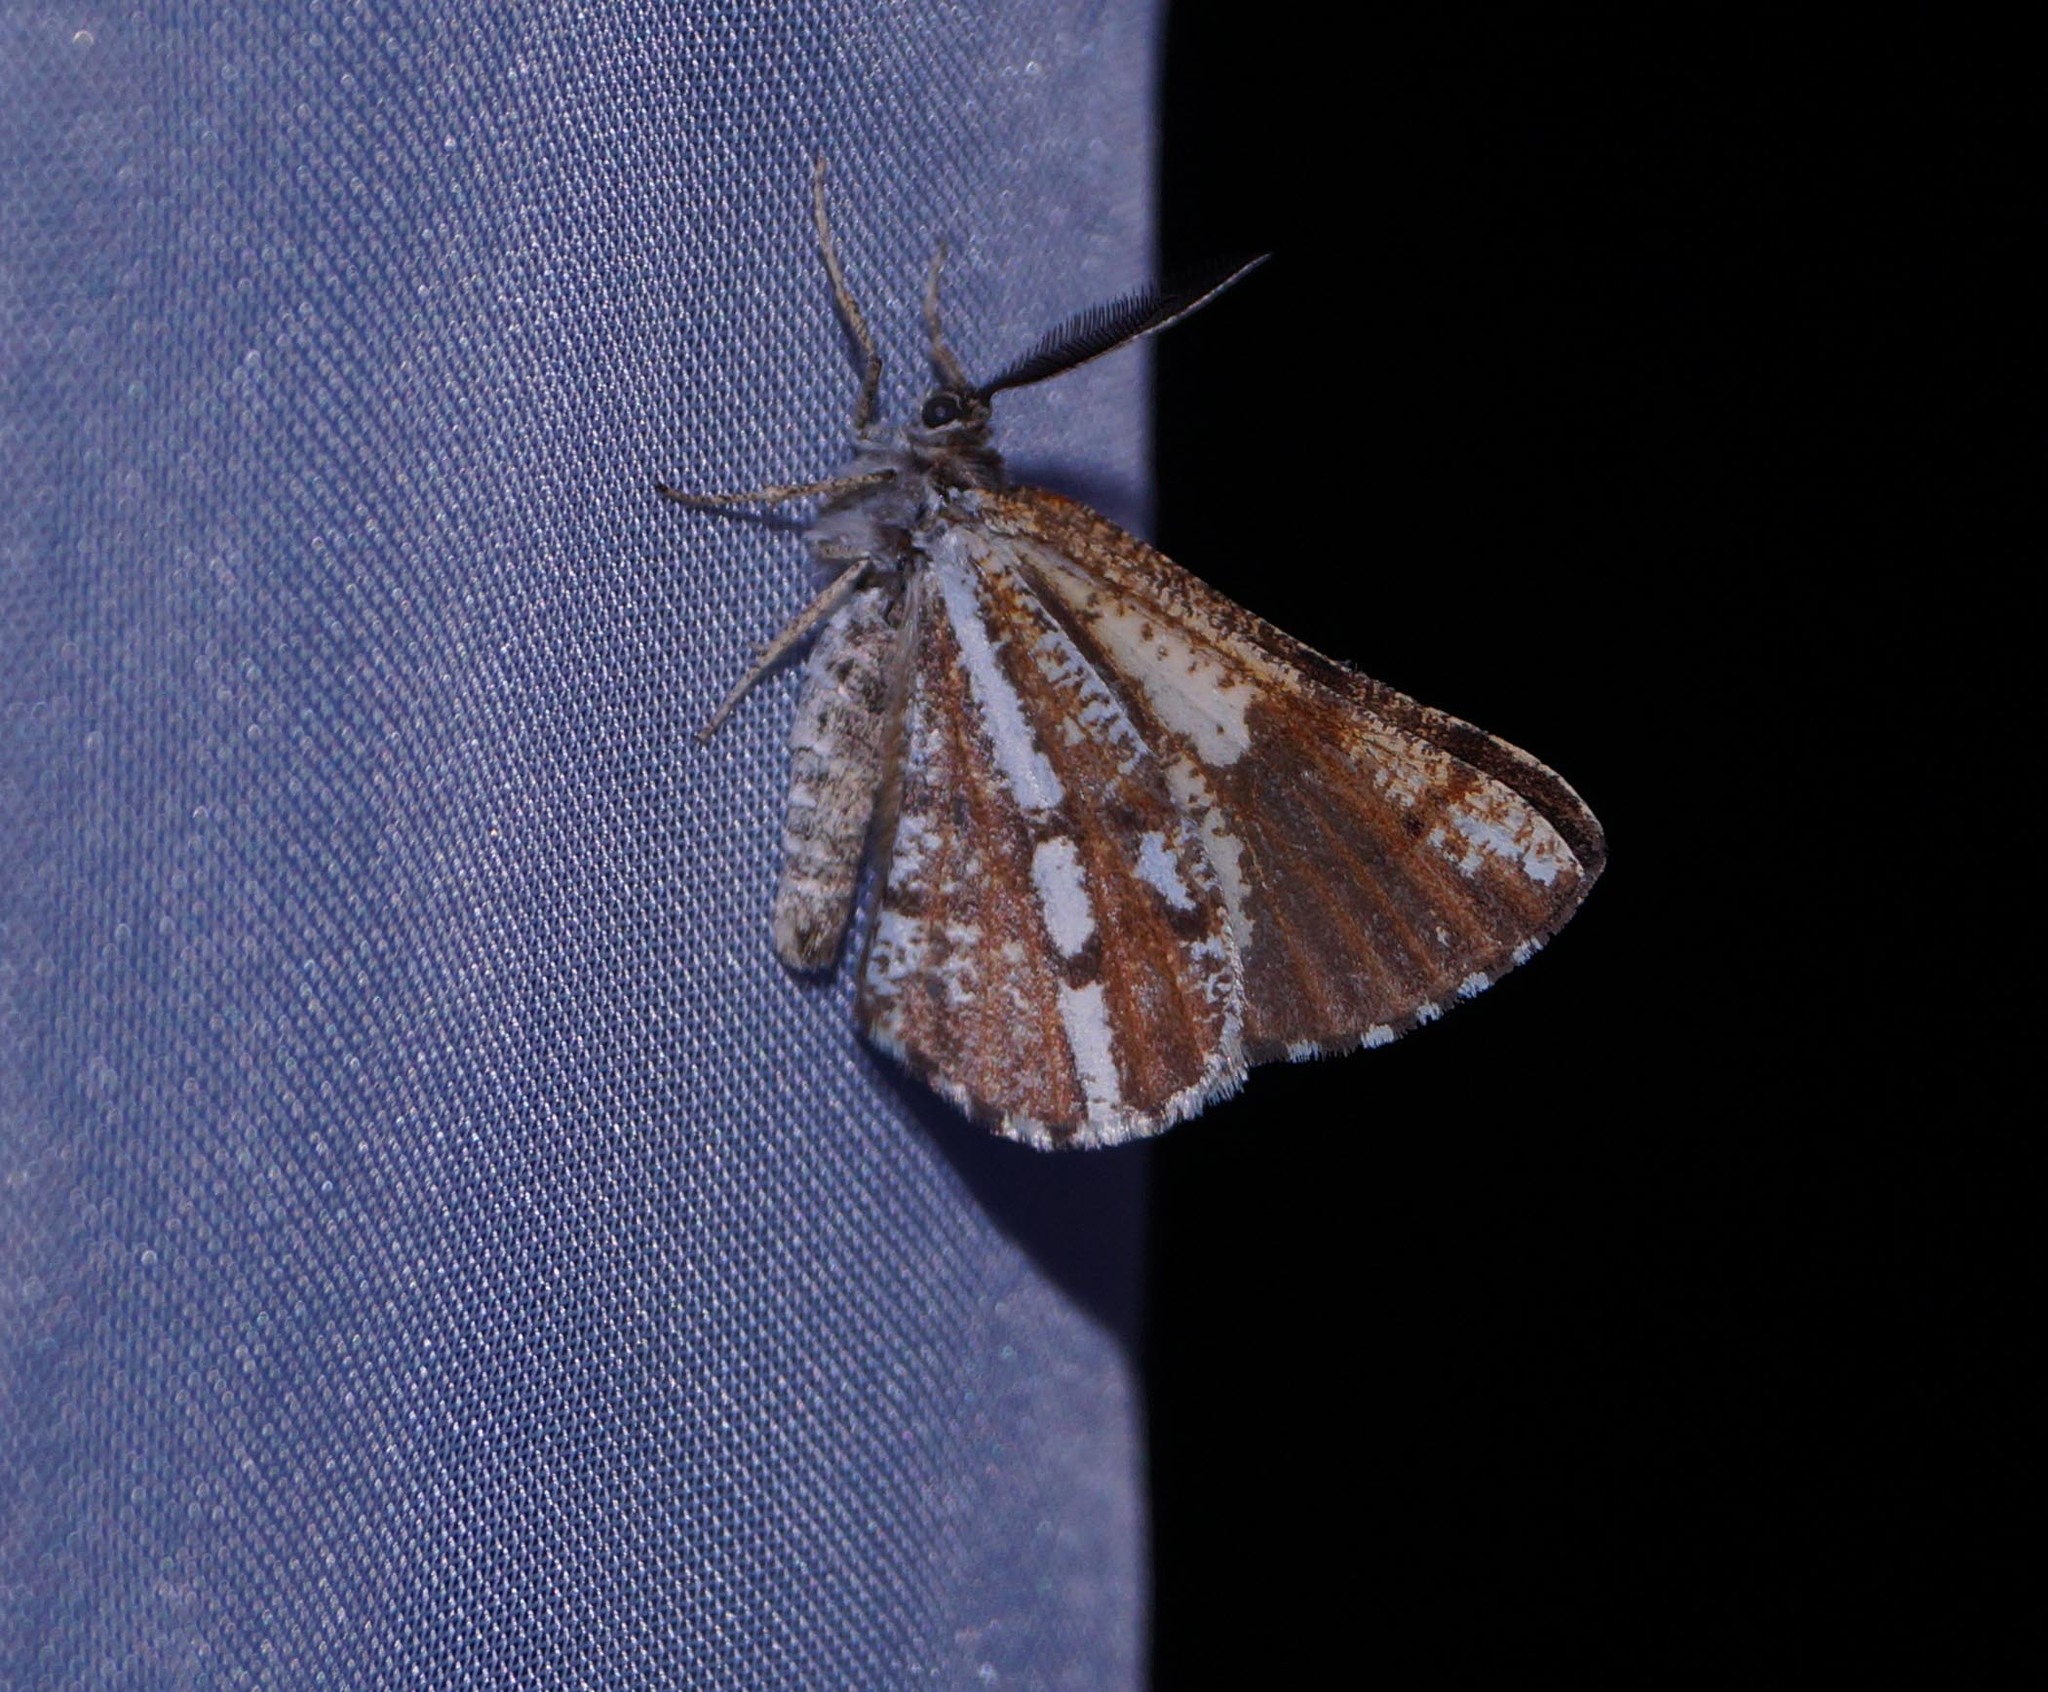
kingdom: Animalia
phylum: Arthropoda
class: Insecta
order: Lepidoptera
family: Geometridae
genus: Bupalus
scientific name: Bupalus piniaria
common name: Bordered white
